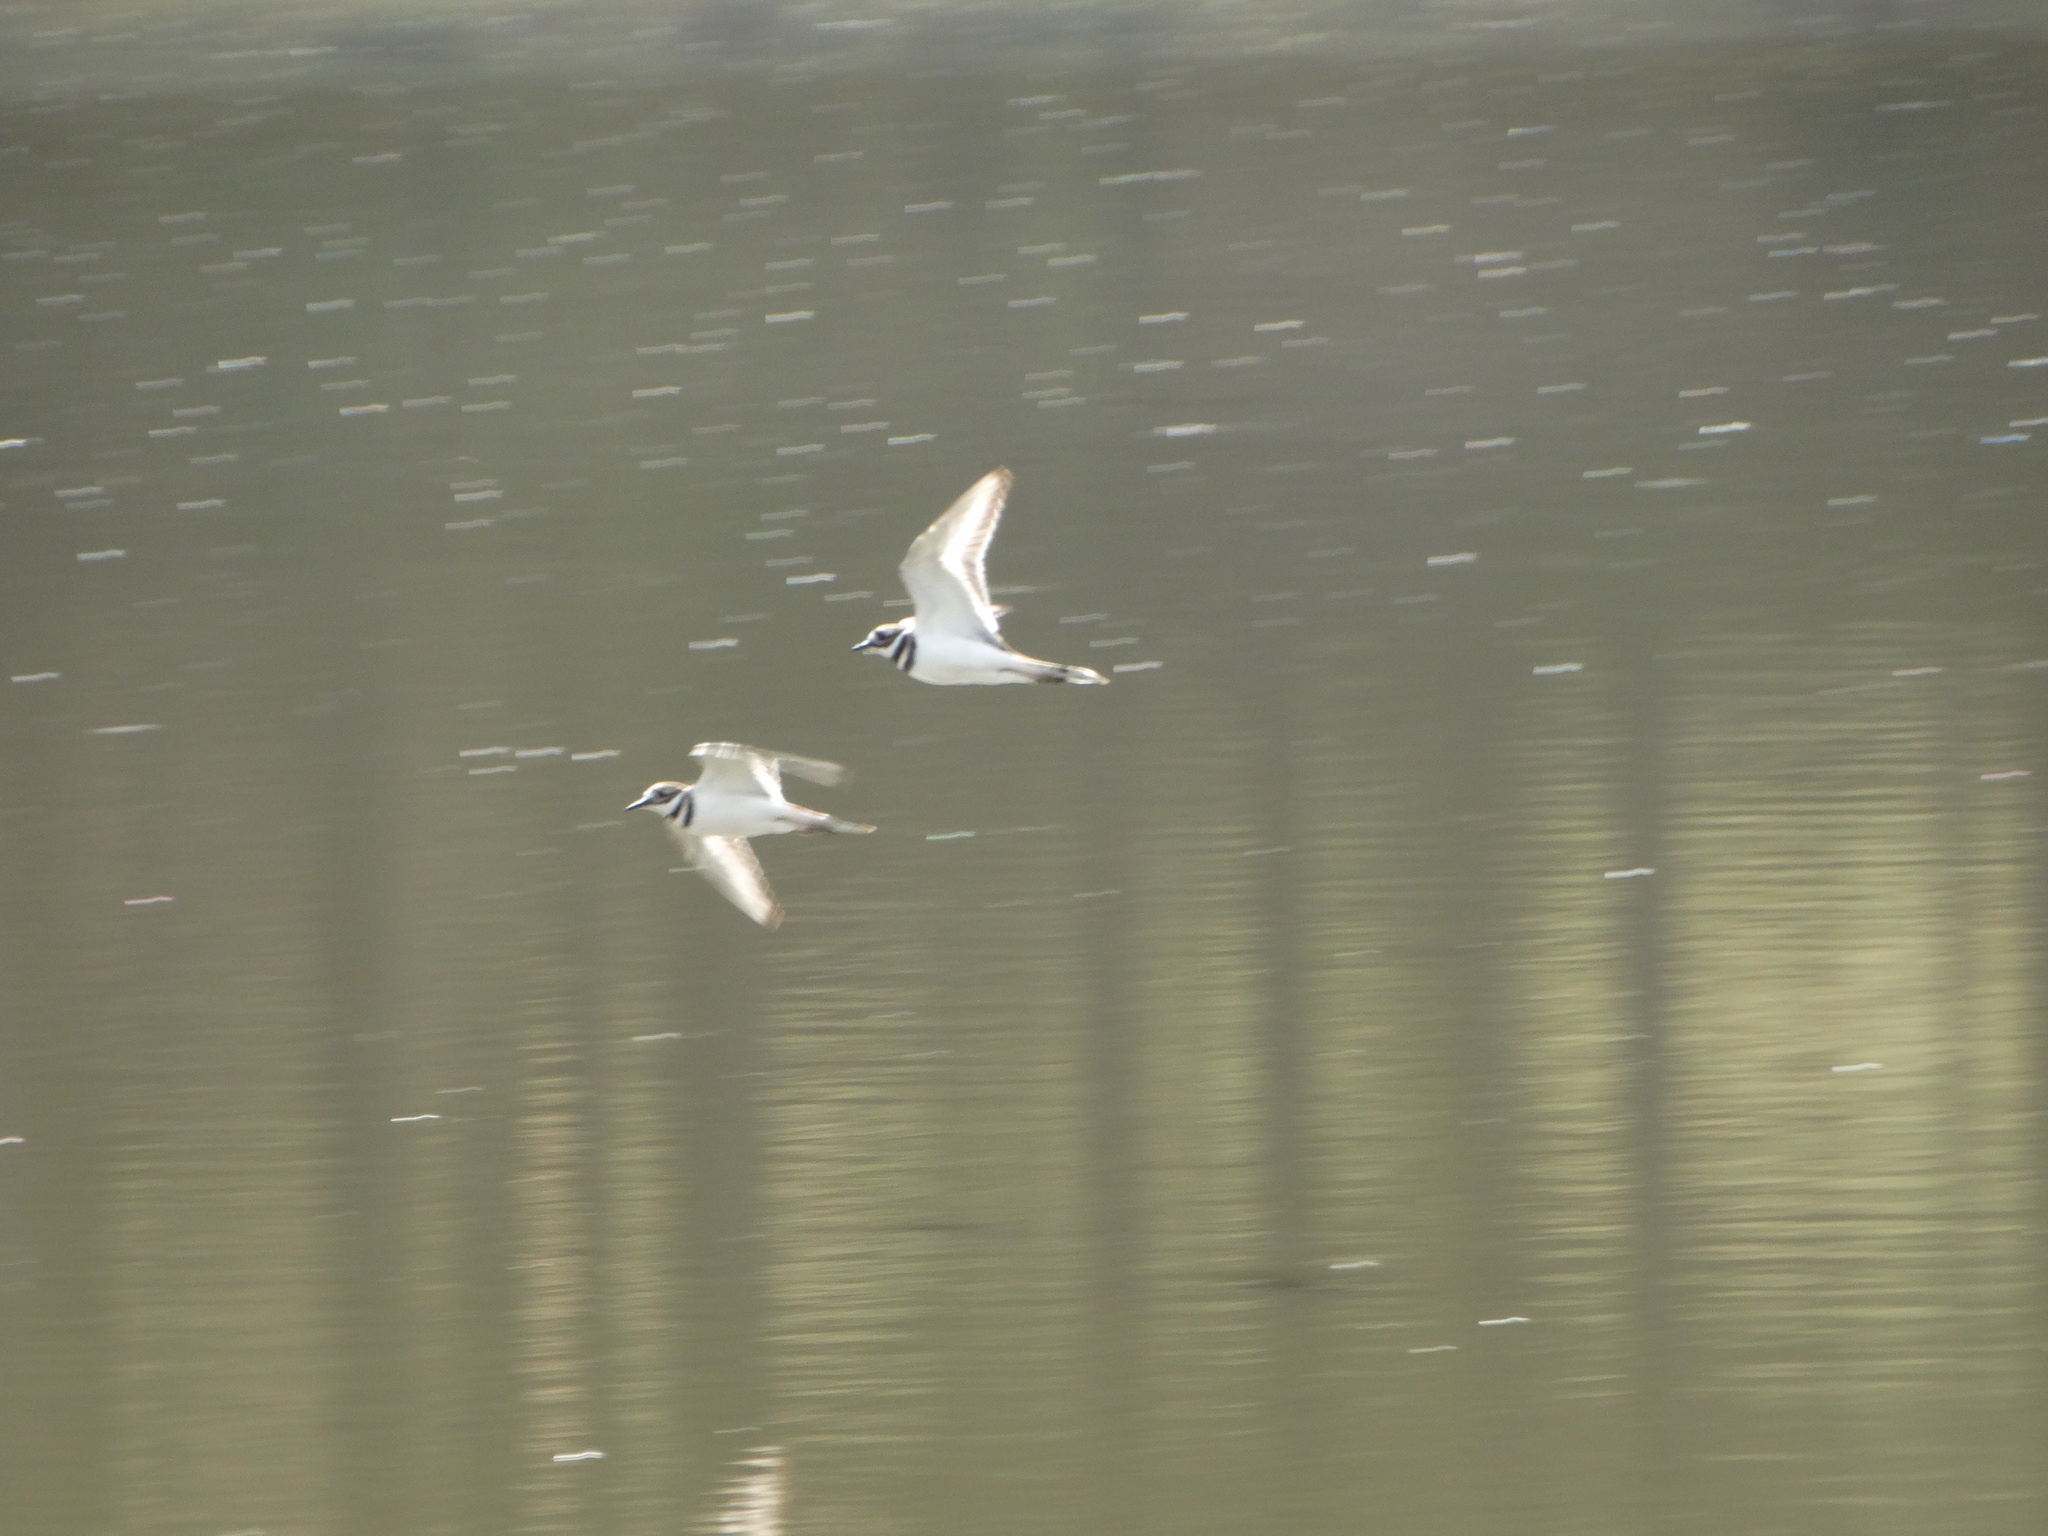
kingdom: Animalia
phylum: Chordata
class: Aves
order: Charadriiformes
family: Charadriidae
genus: Charadrius
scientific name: Charadrius vociferus
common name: Killdeer
